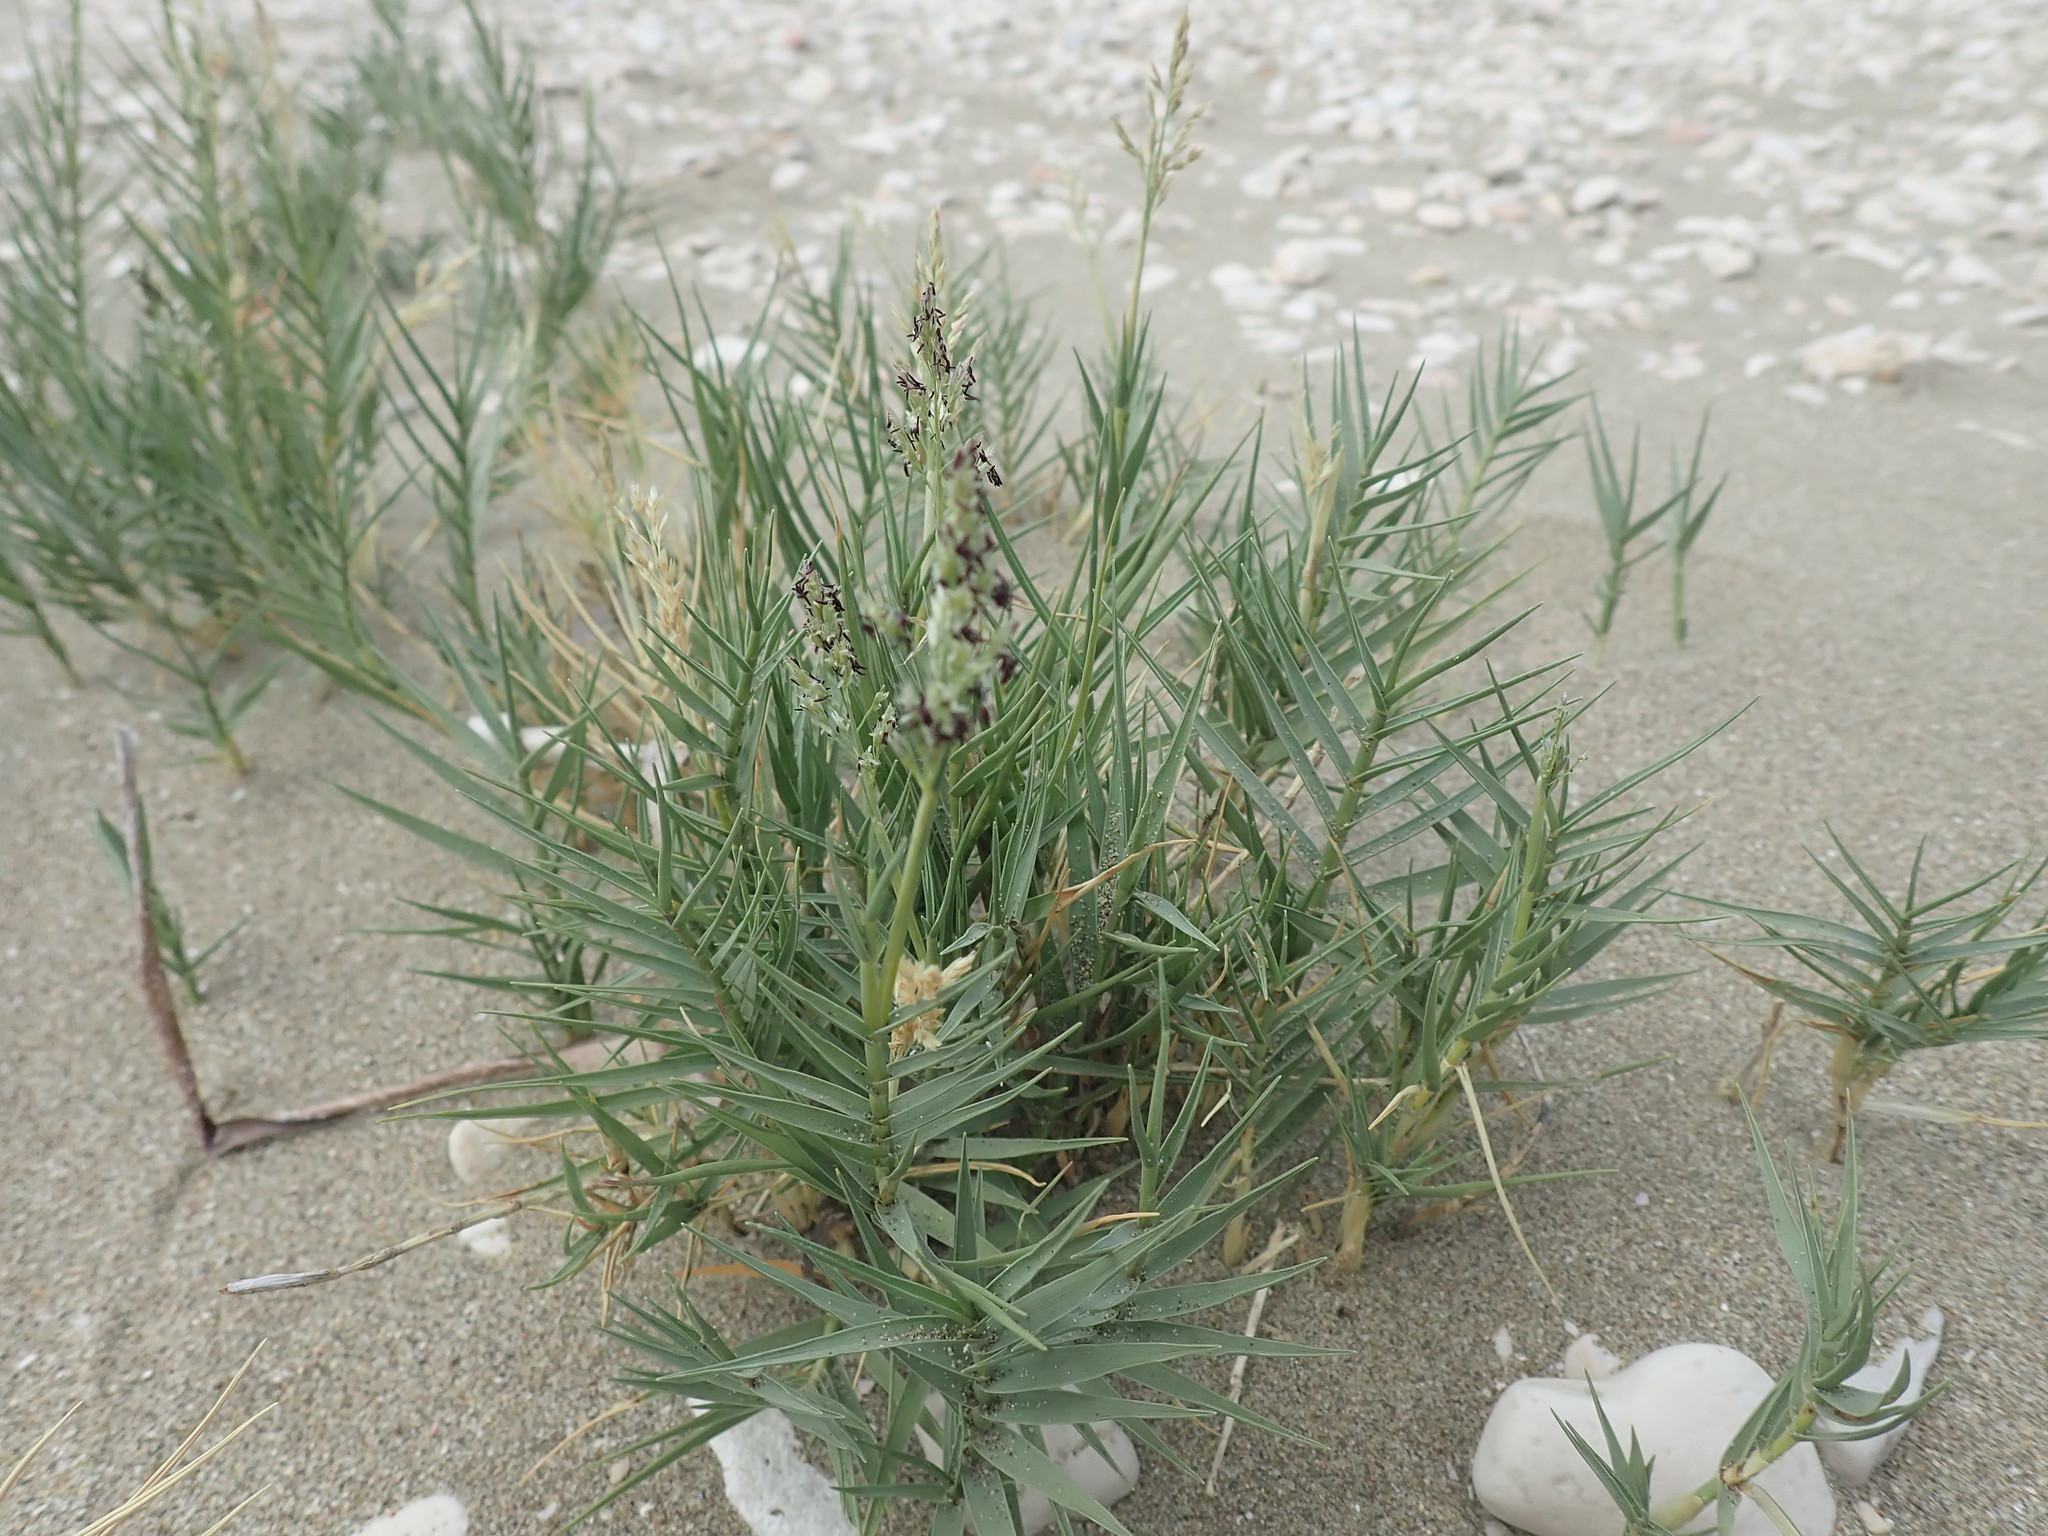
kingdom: Plantae
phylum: Tracheophyta
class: Liliopsida
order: Poales
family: Poaceae
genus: Sporobolus
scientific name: Sporobolus pungens
